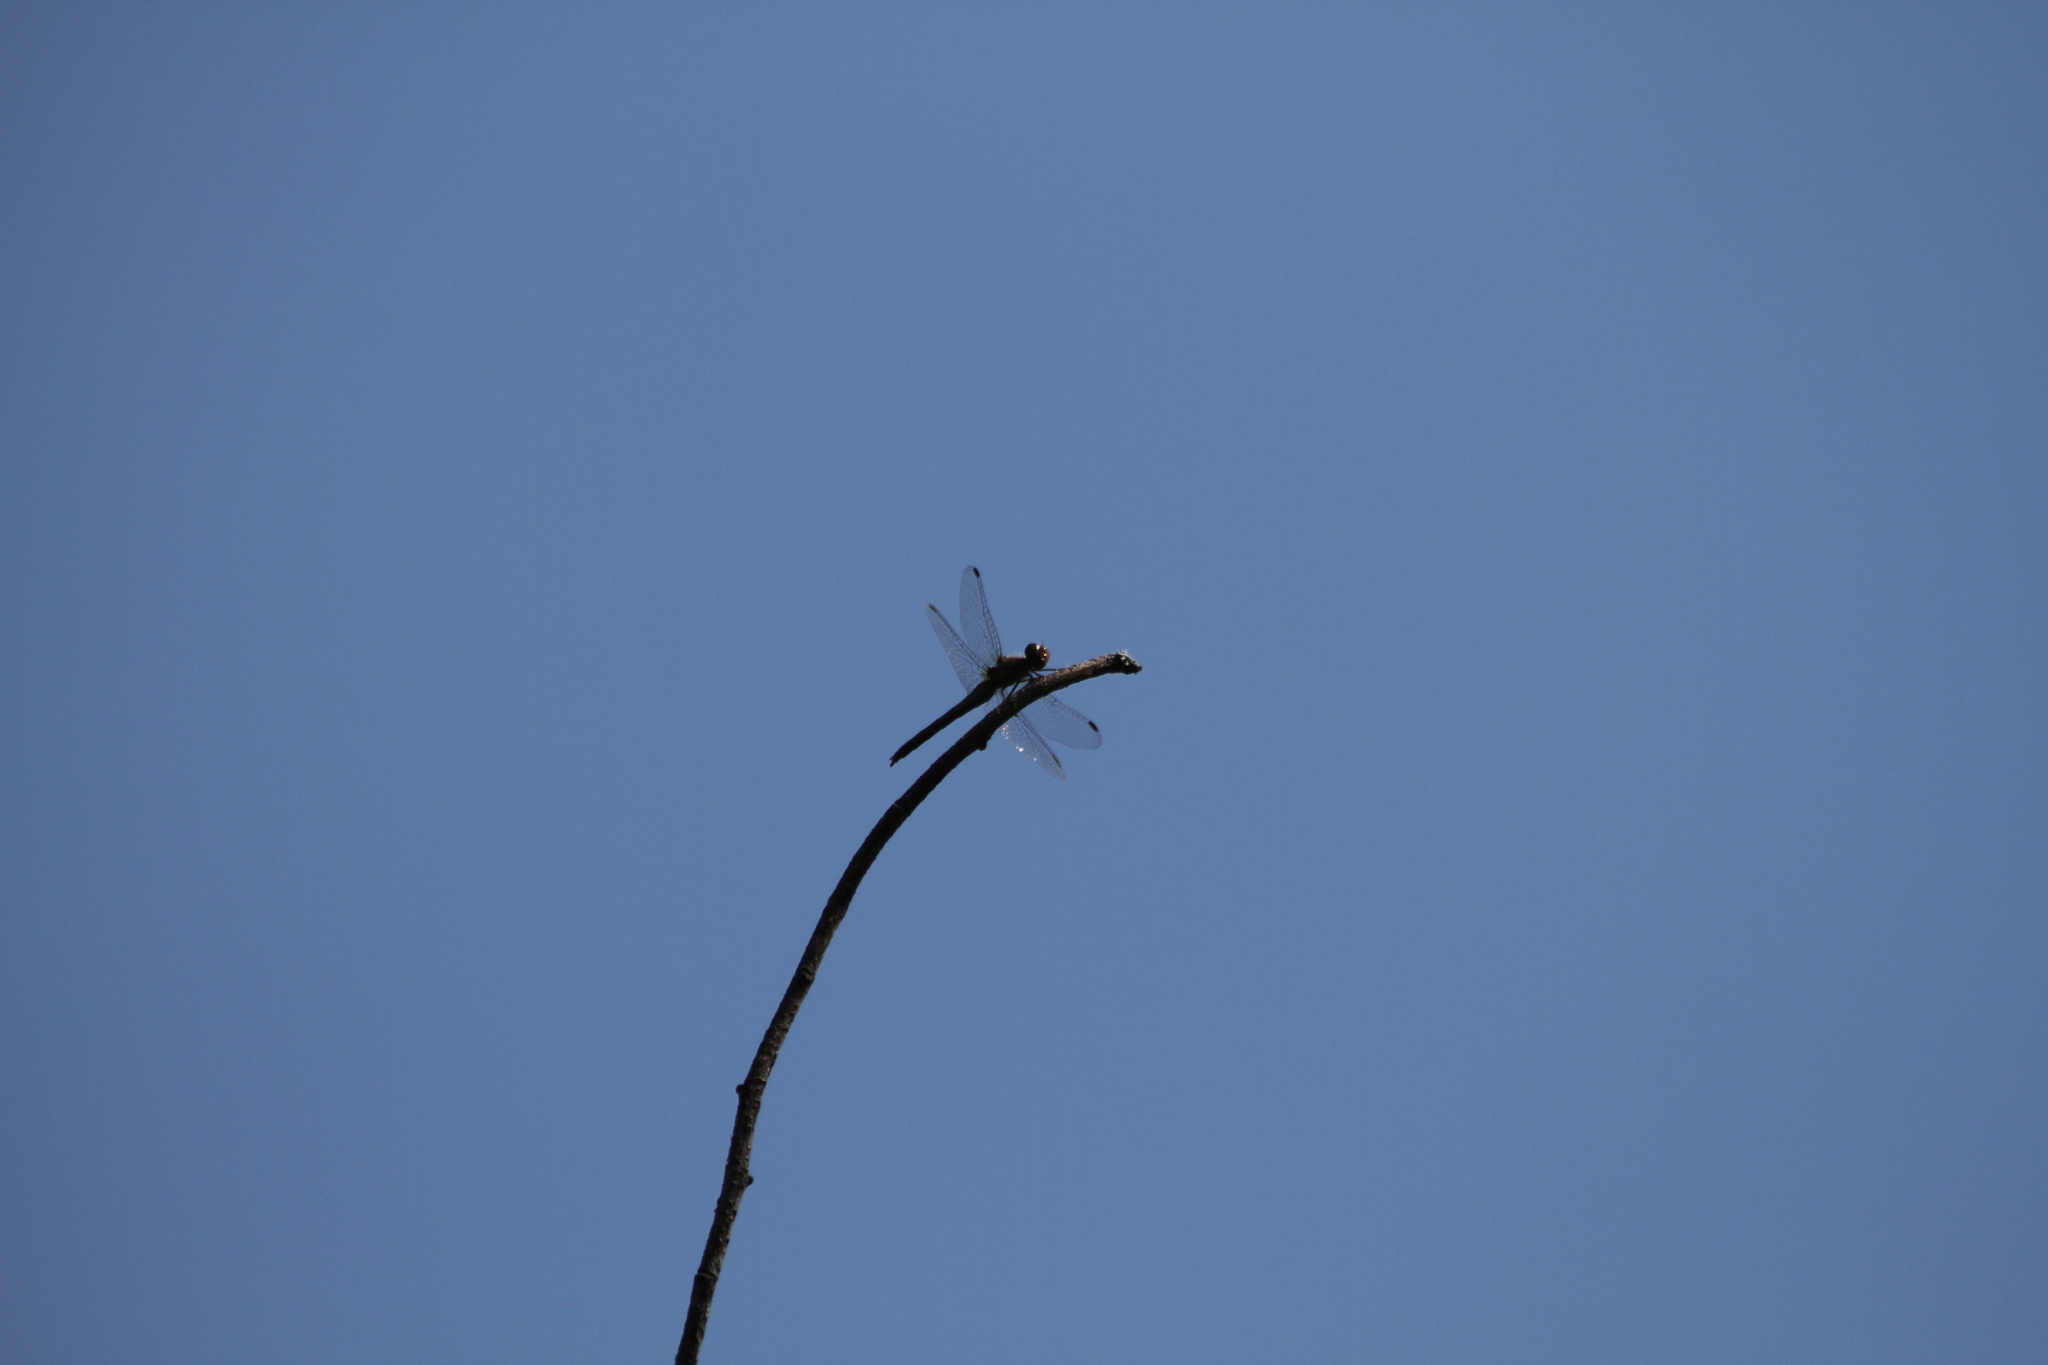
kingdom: Animalia
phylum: Arthropoda
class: Insecta
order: Odonata
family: Libellulidae
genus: Sympetrum
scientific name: Sympetrum striolatum
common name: Common darter
